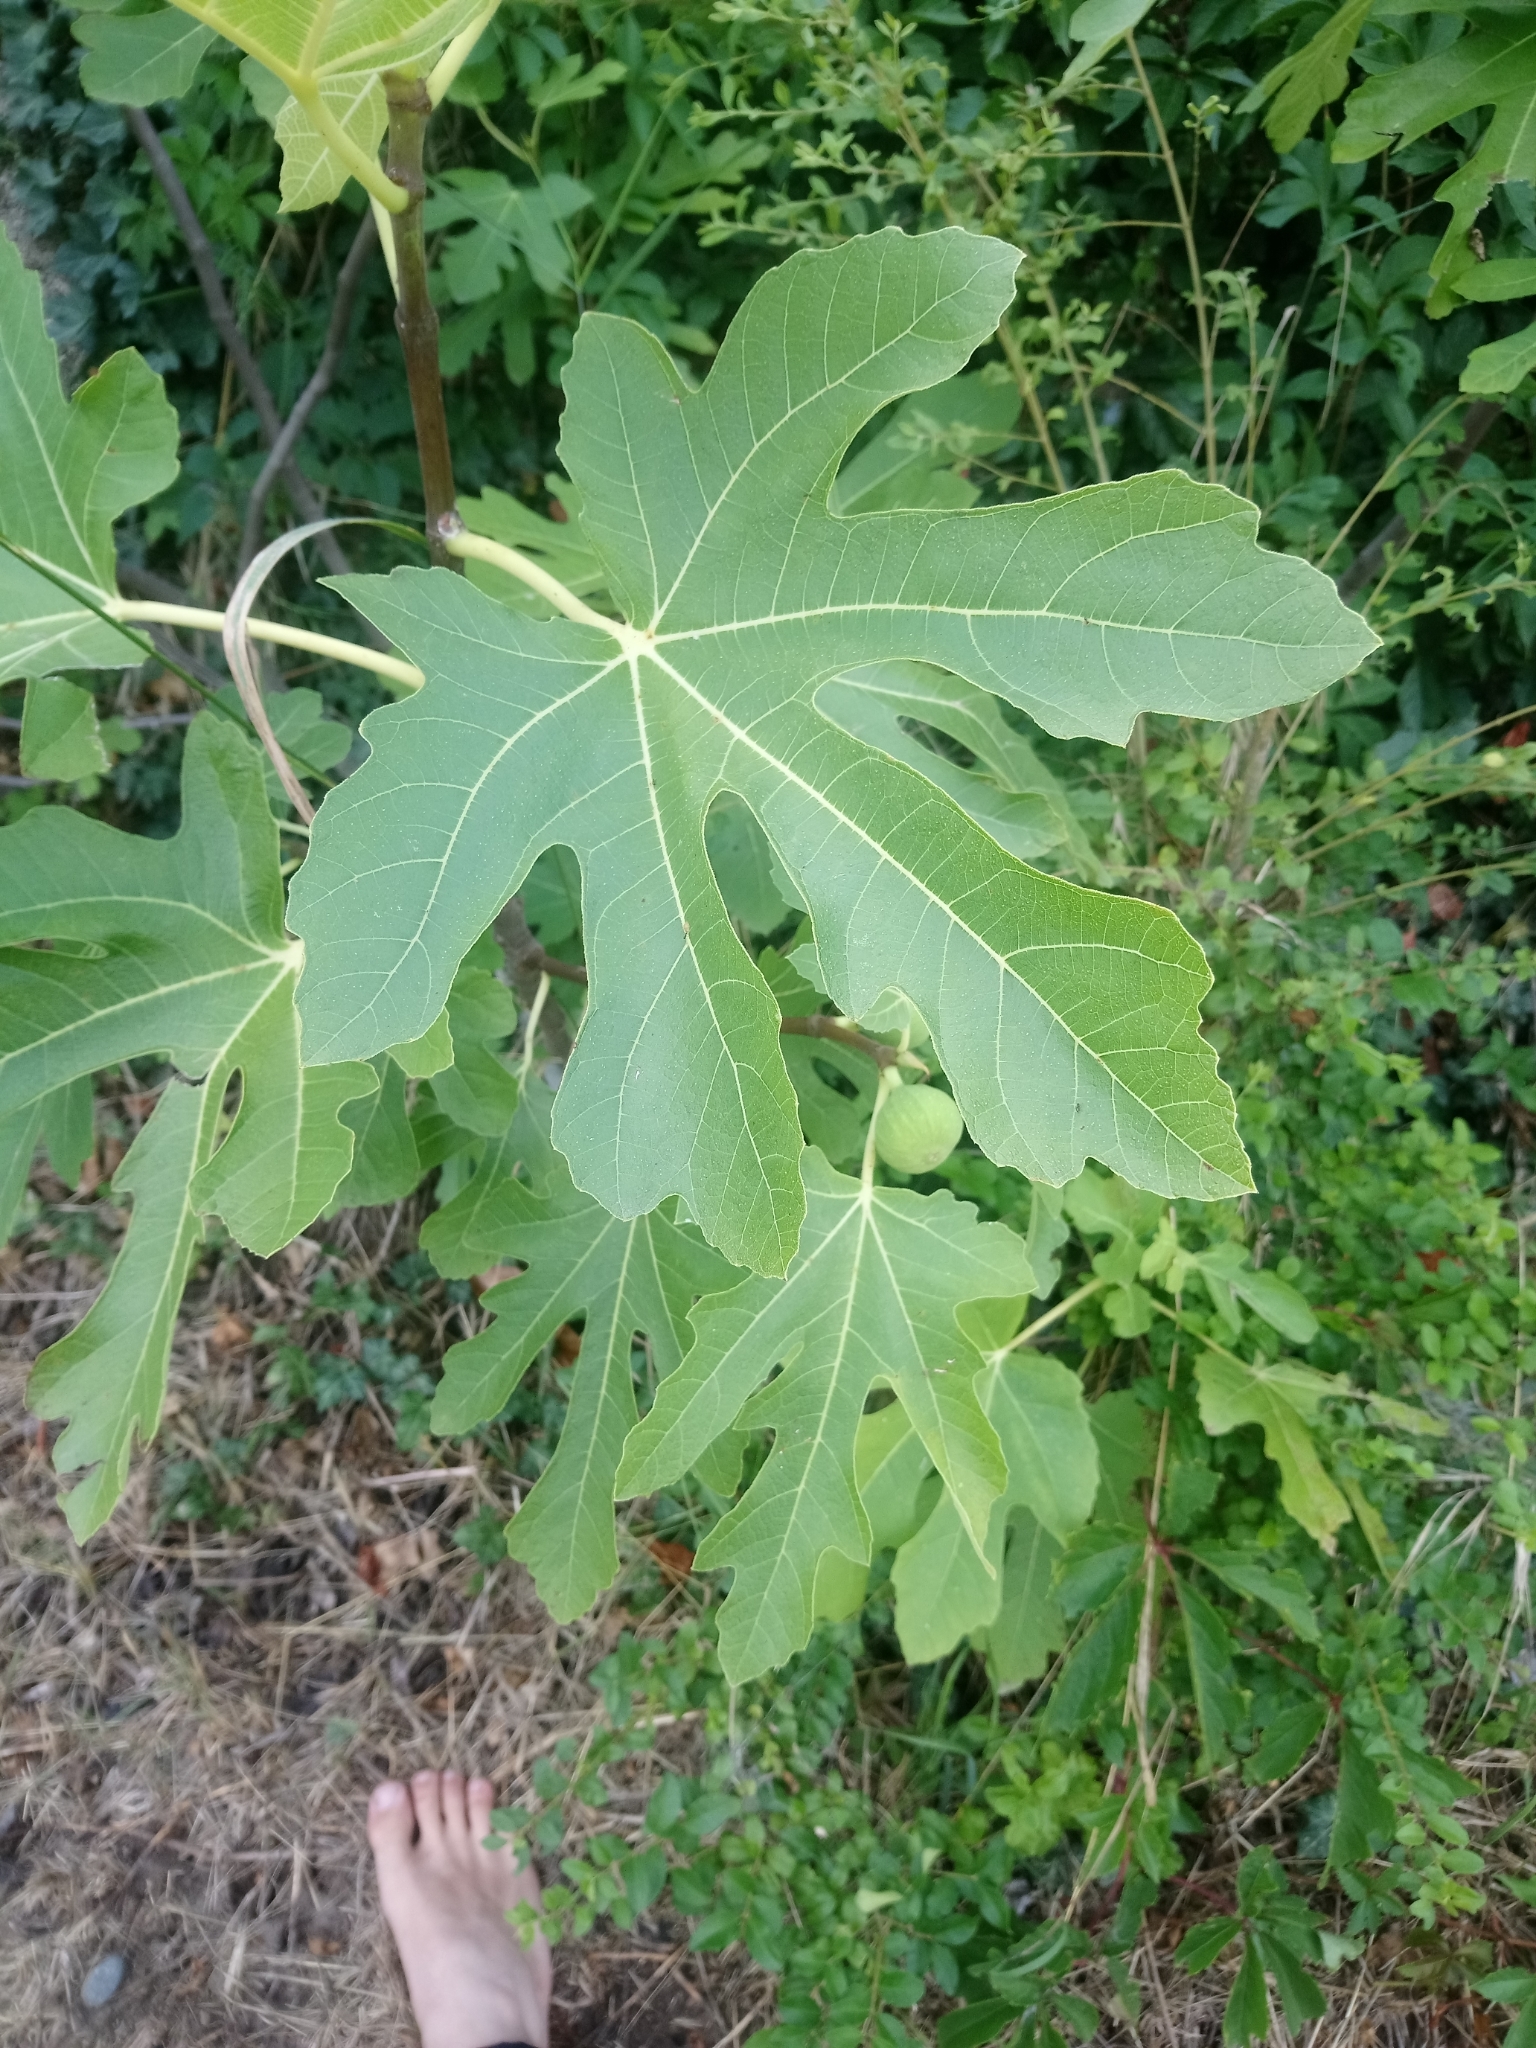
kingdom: Plantae
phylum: Tracheophyta
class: Magnoliopsida
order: Rosales
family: Moraceae
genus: Ficus
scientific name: Ficus carica
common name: Fig
